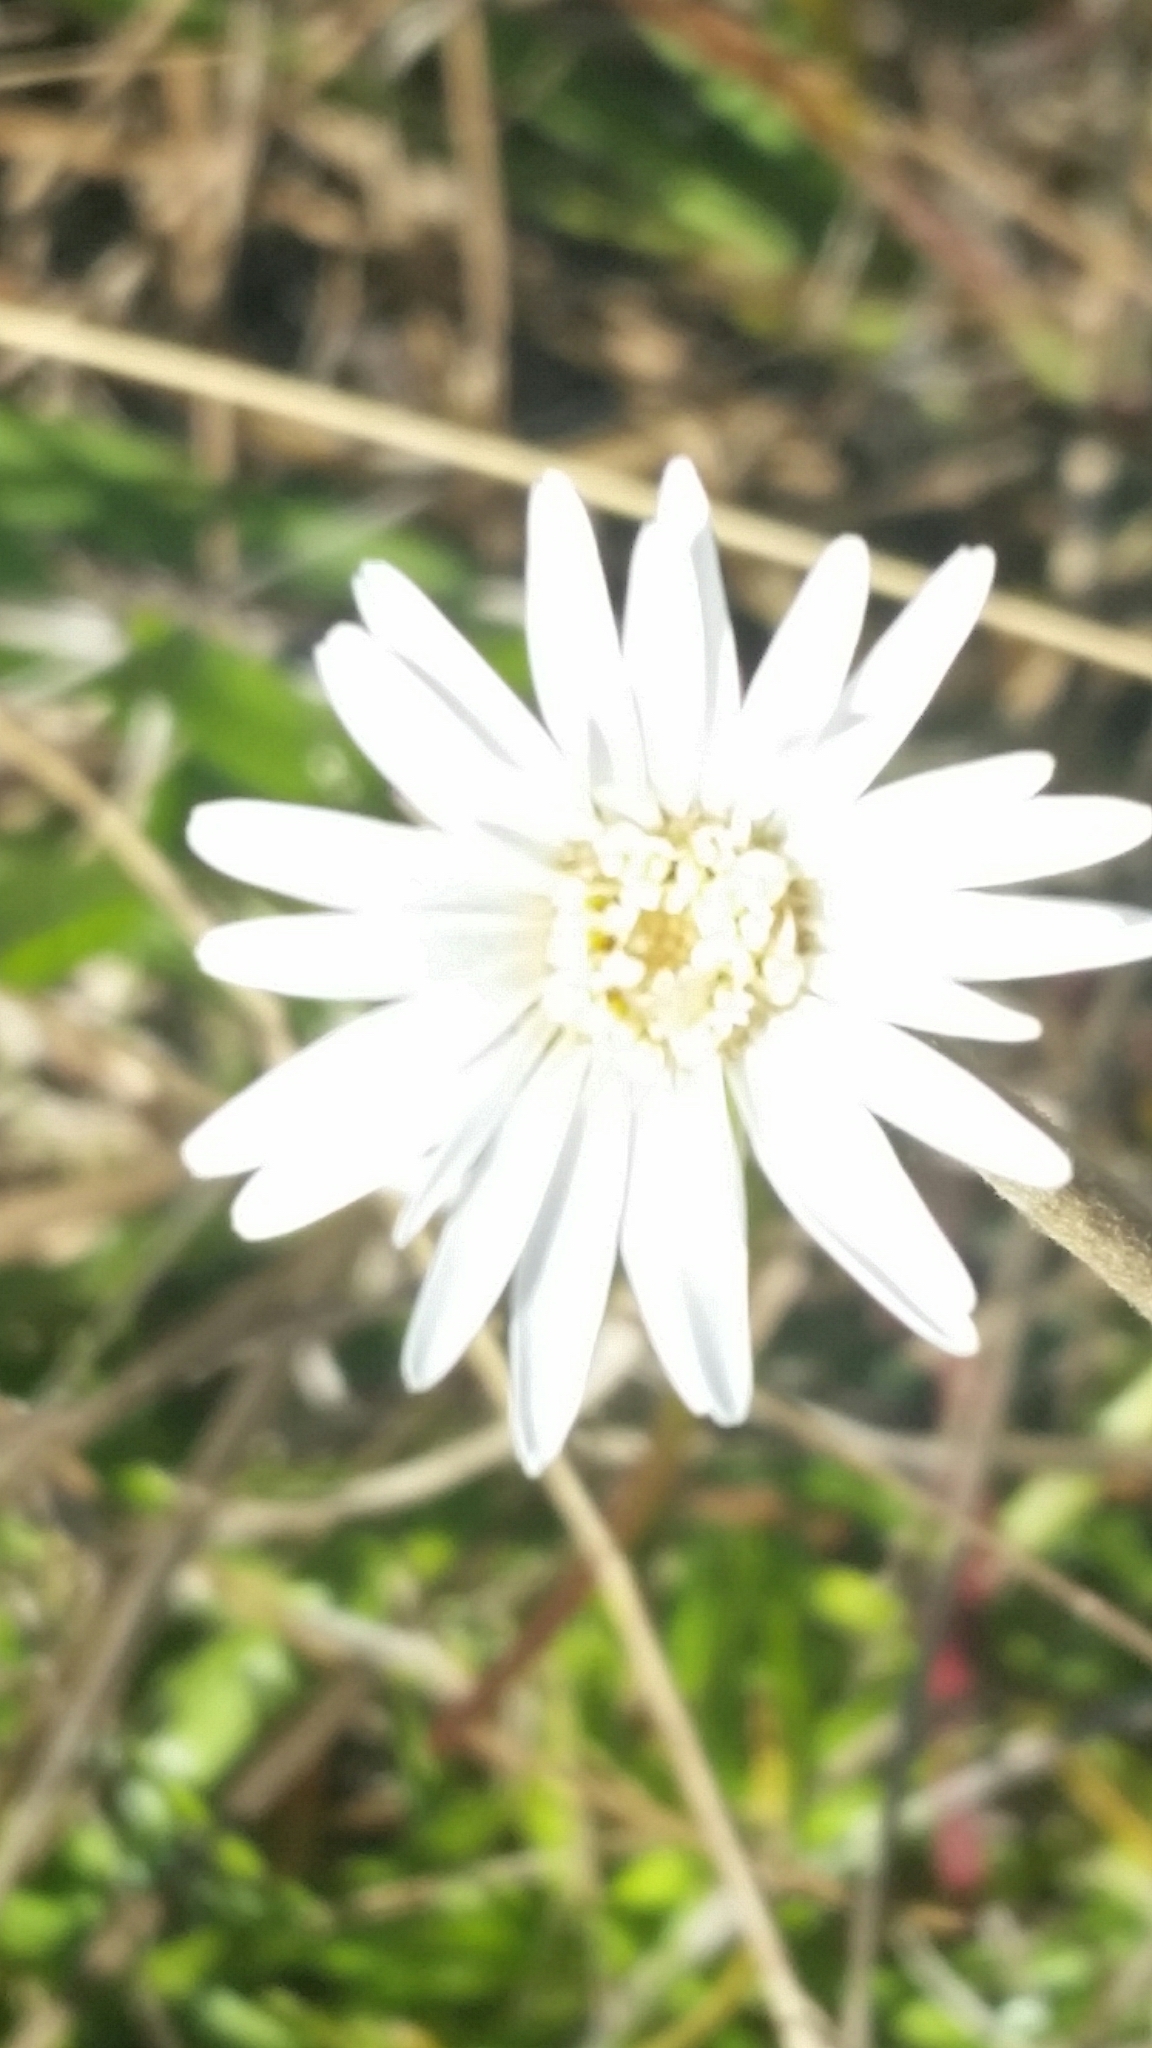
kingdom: Plantae
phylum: Tracheophyta
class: Magnoliopsida
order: Asterales
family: Asteraceae
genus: Chaptalia
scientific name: Chaptalia tomentosa
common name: Woolly sunbonnet
